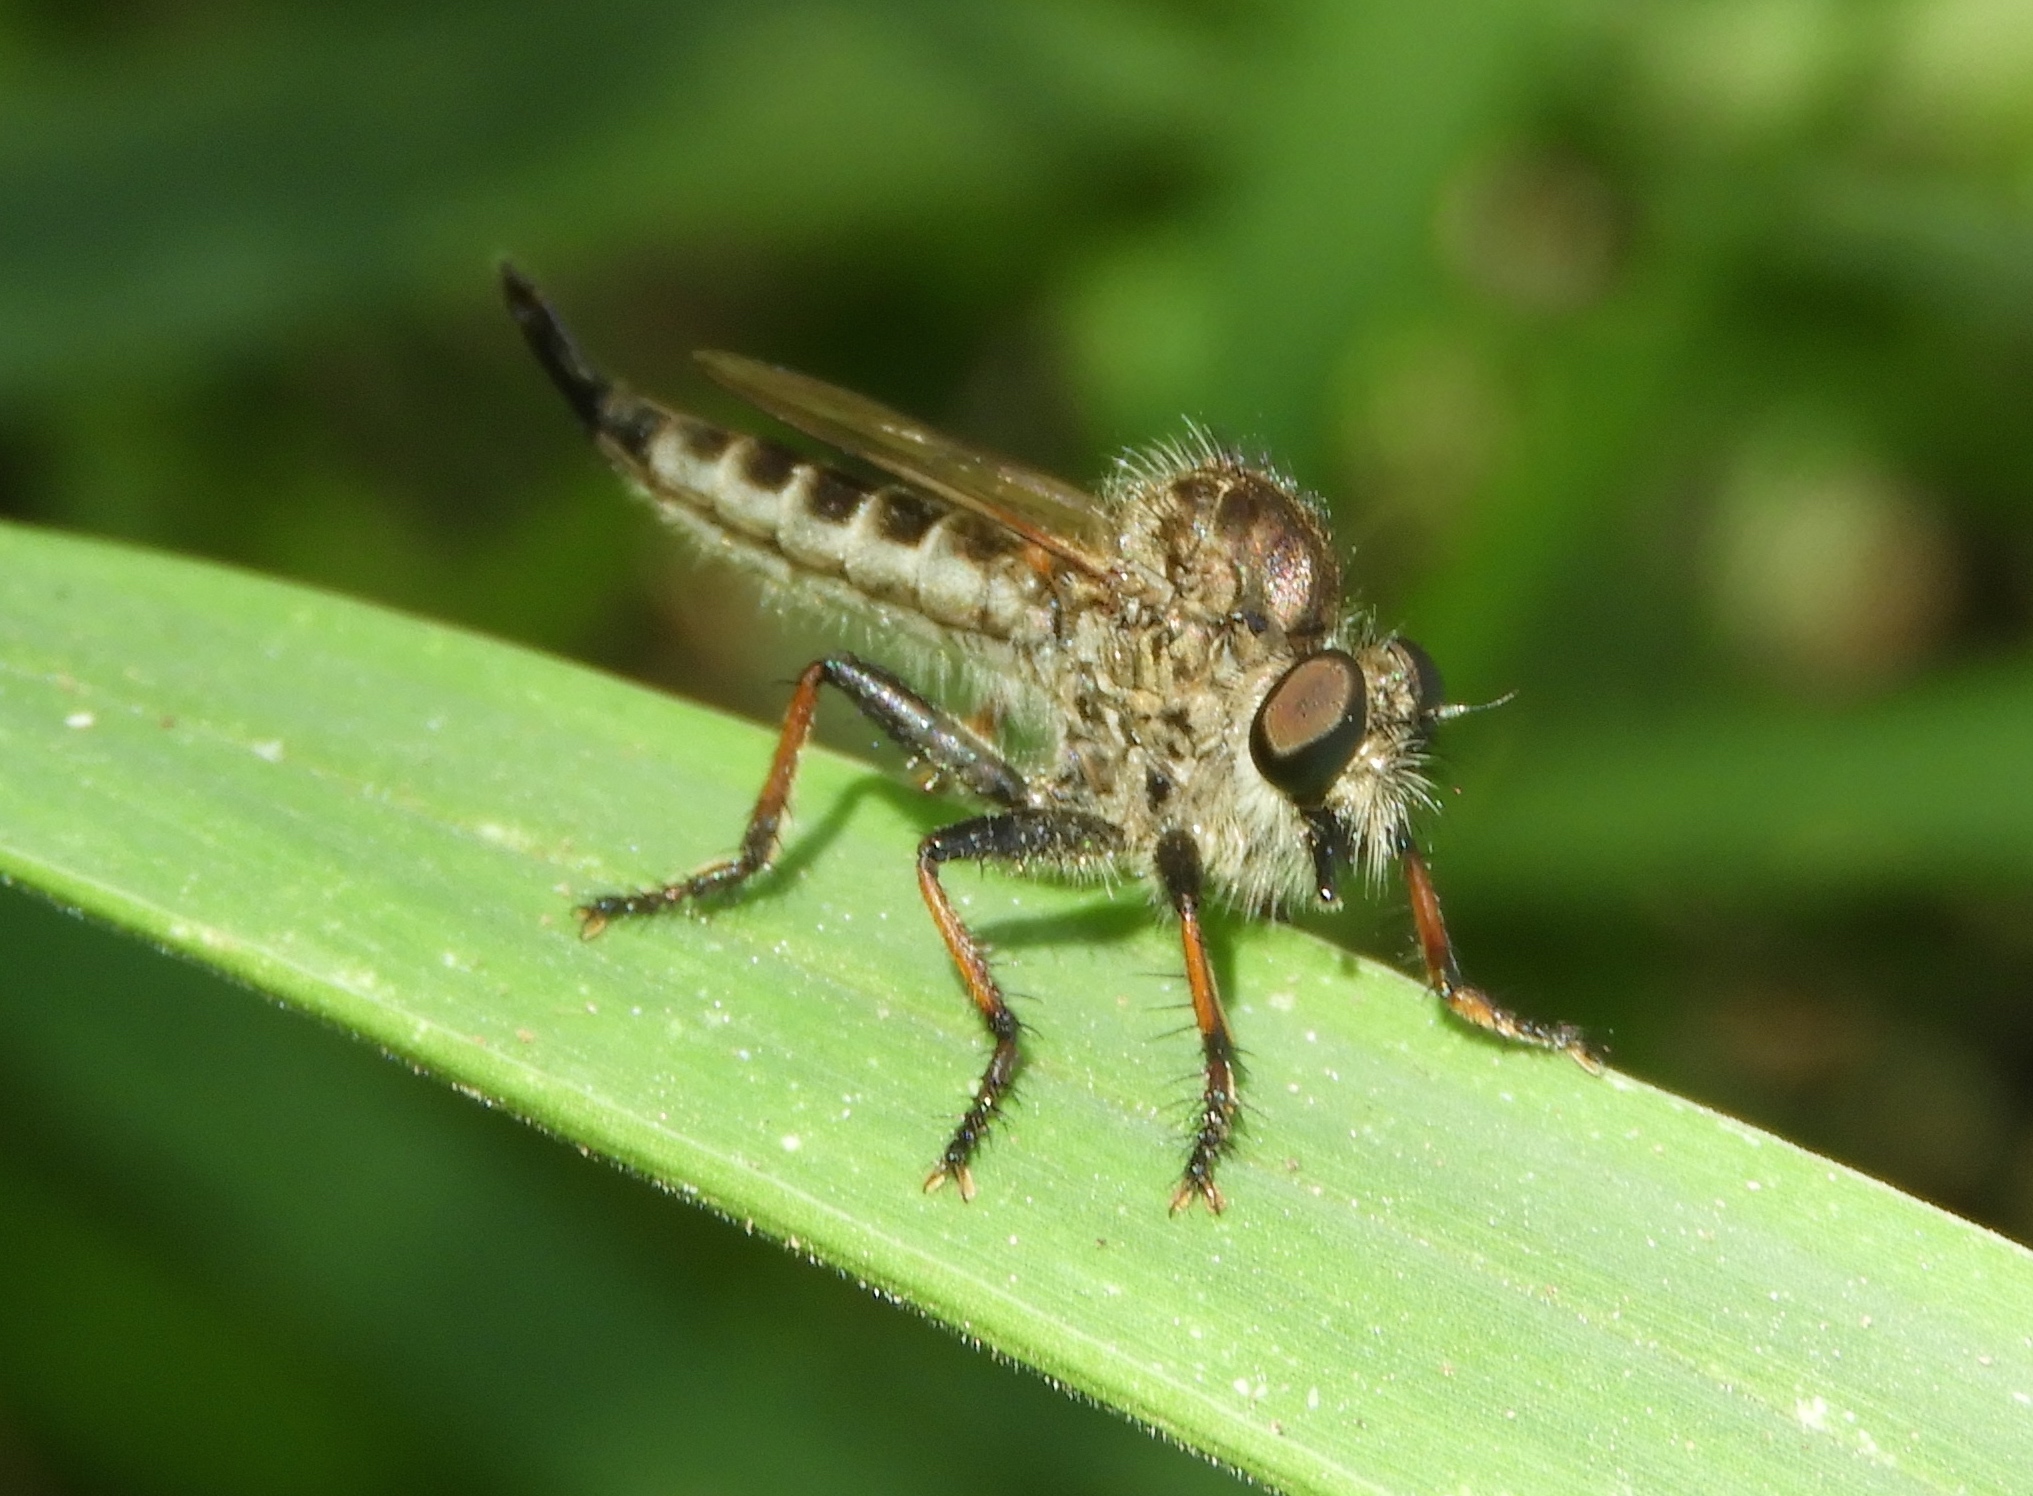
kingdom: Animalia
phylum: Arthropoda
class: Insecta
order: Diptera
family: Asilidae
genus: Efferia
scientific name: Efferia
